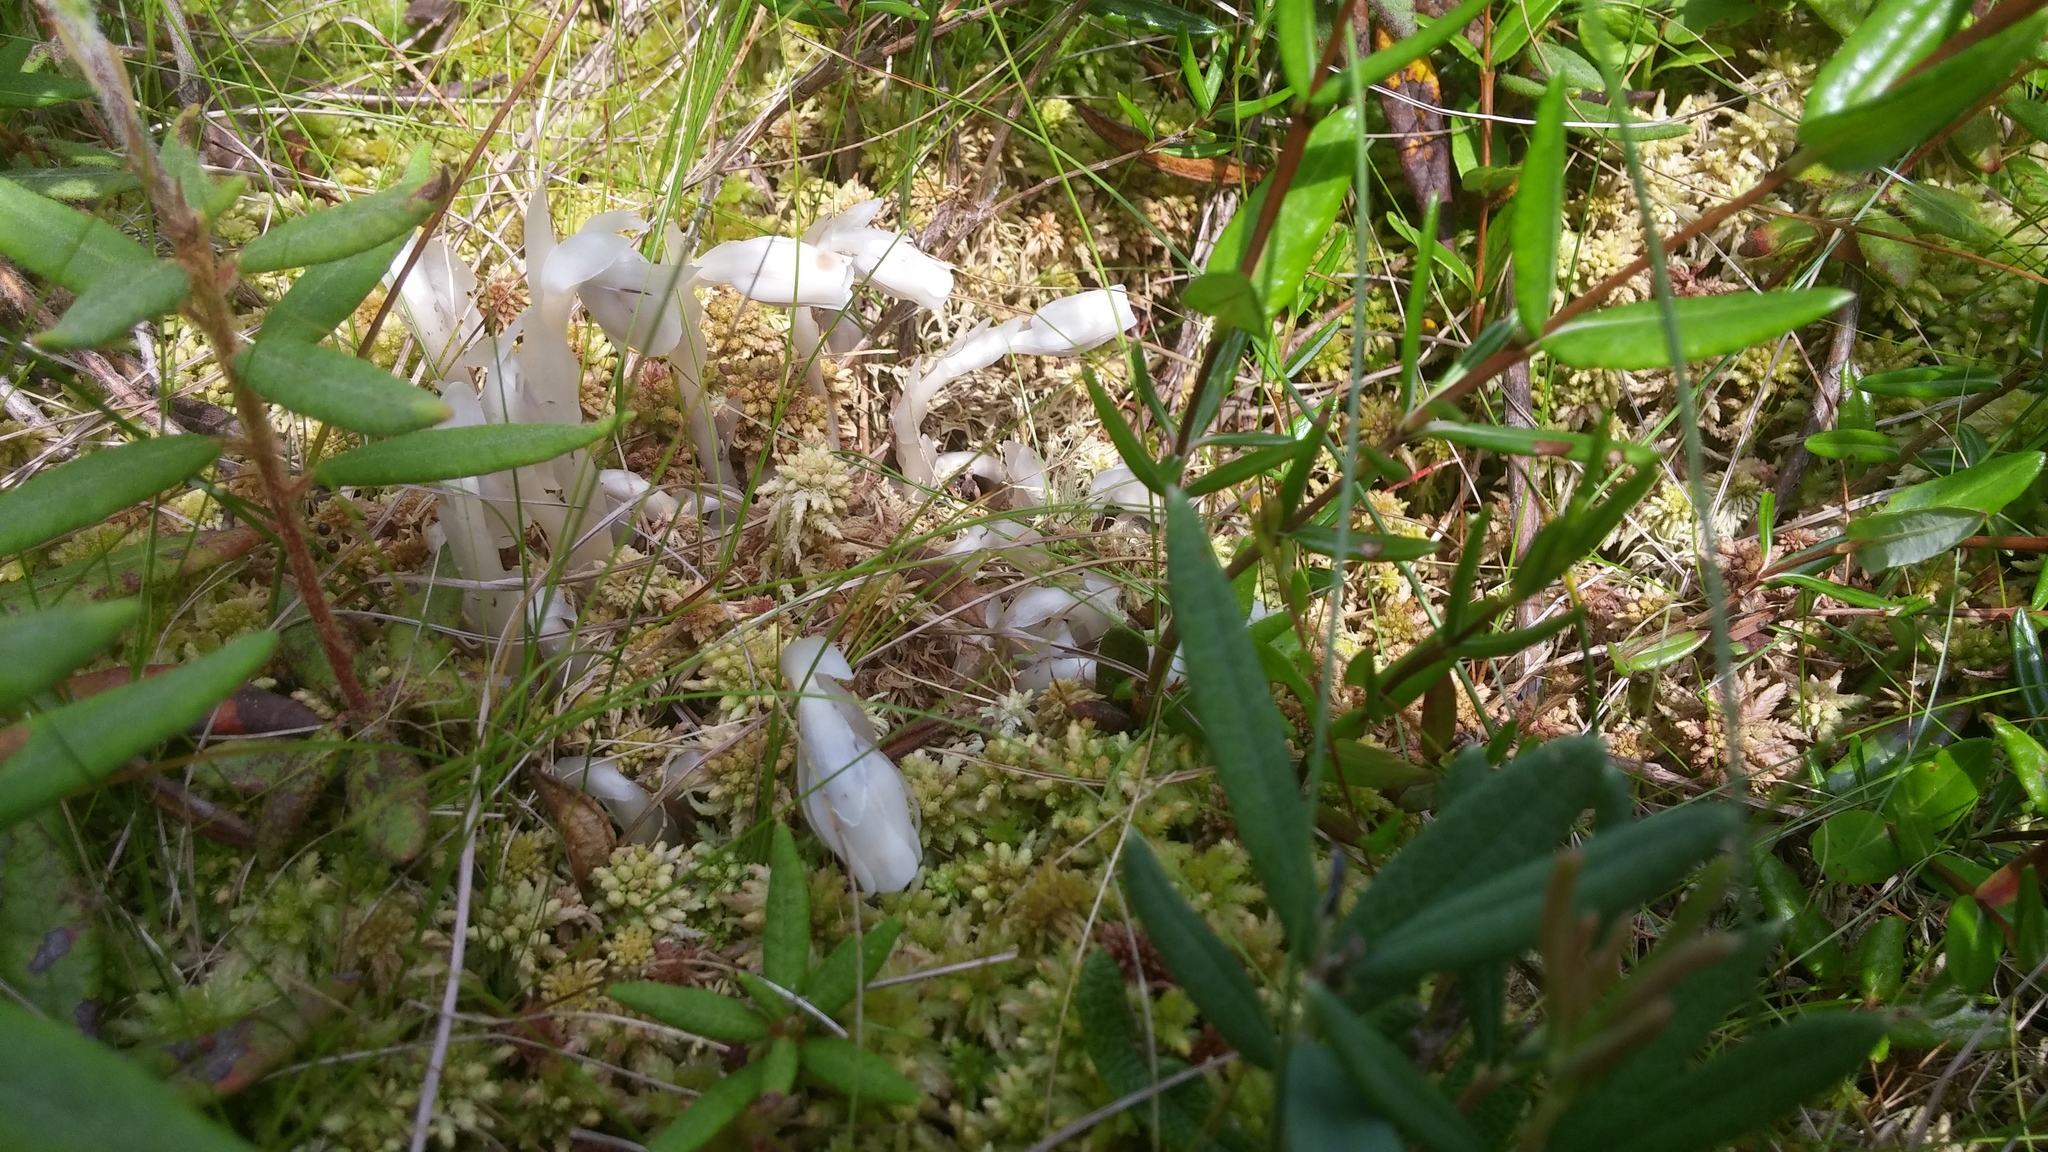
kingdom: Plantae
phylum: Tracheophyta
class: Magnoliopsida
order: Ericales
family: Ericaceae
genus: Monotropa
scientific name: Monotropa uniflora
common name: Convulsion root
